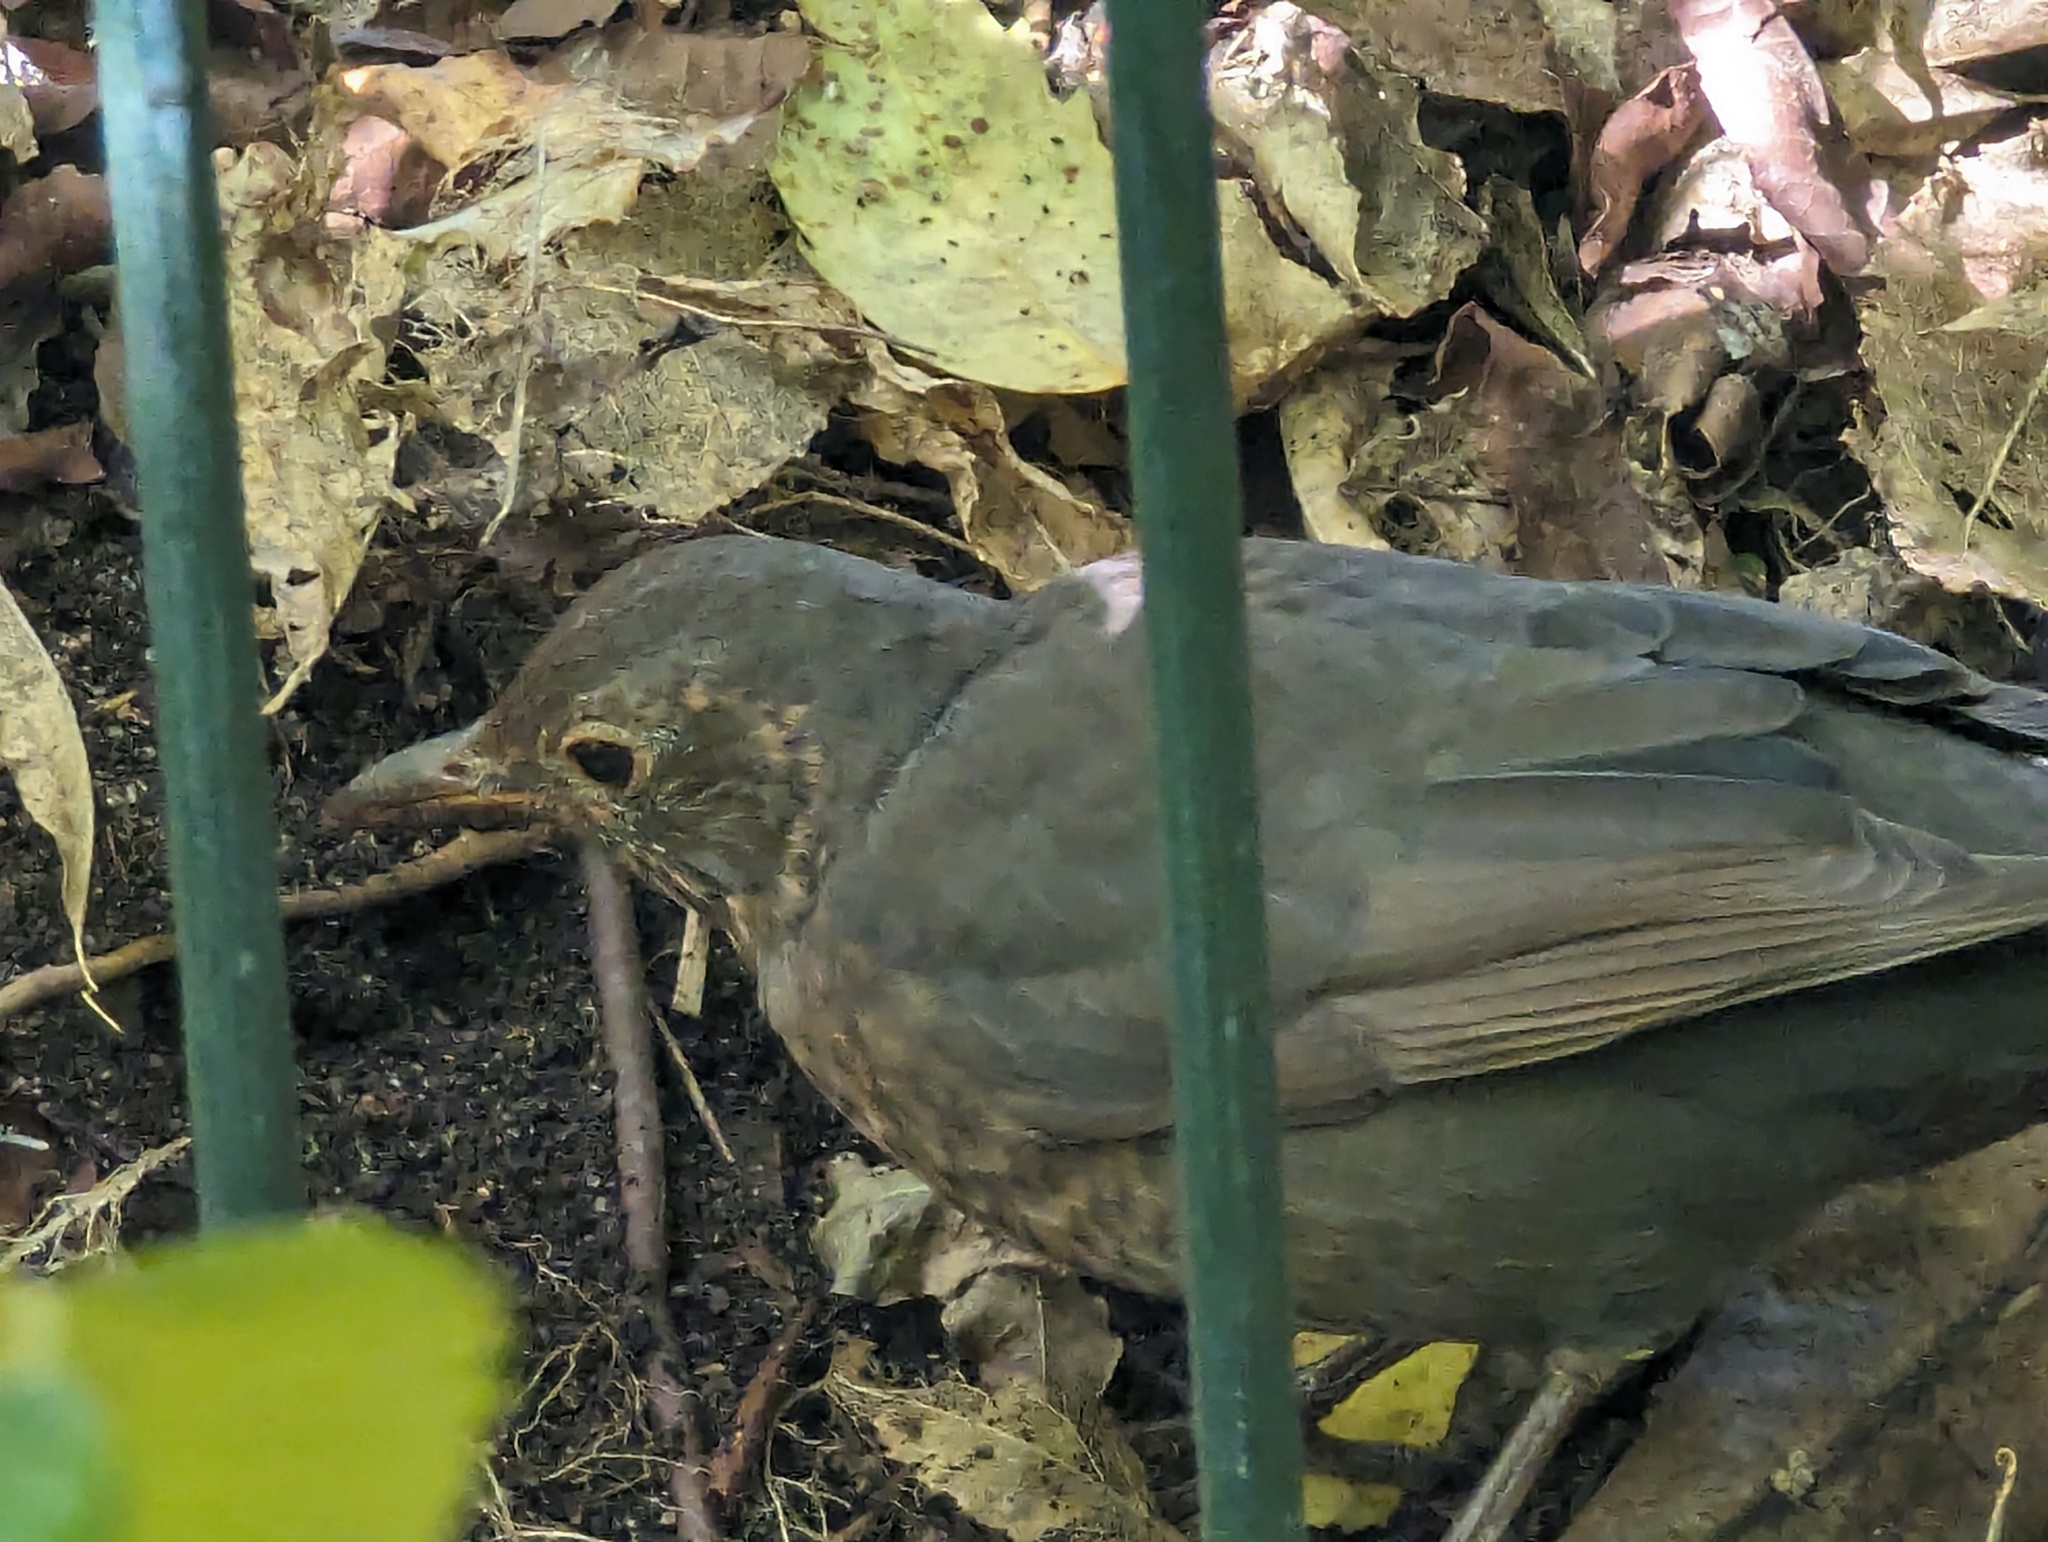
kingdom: Animalia
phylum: Chordata
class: Aves
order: Passeriformes
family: Turdidae
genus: Turdus
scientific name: Turdus merula
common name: Common blackbird
